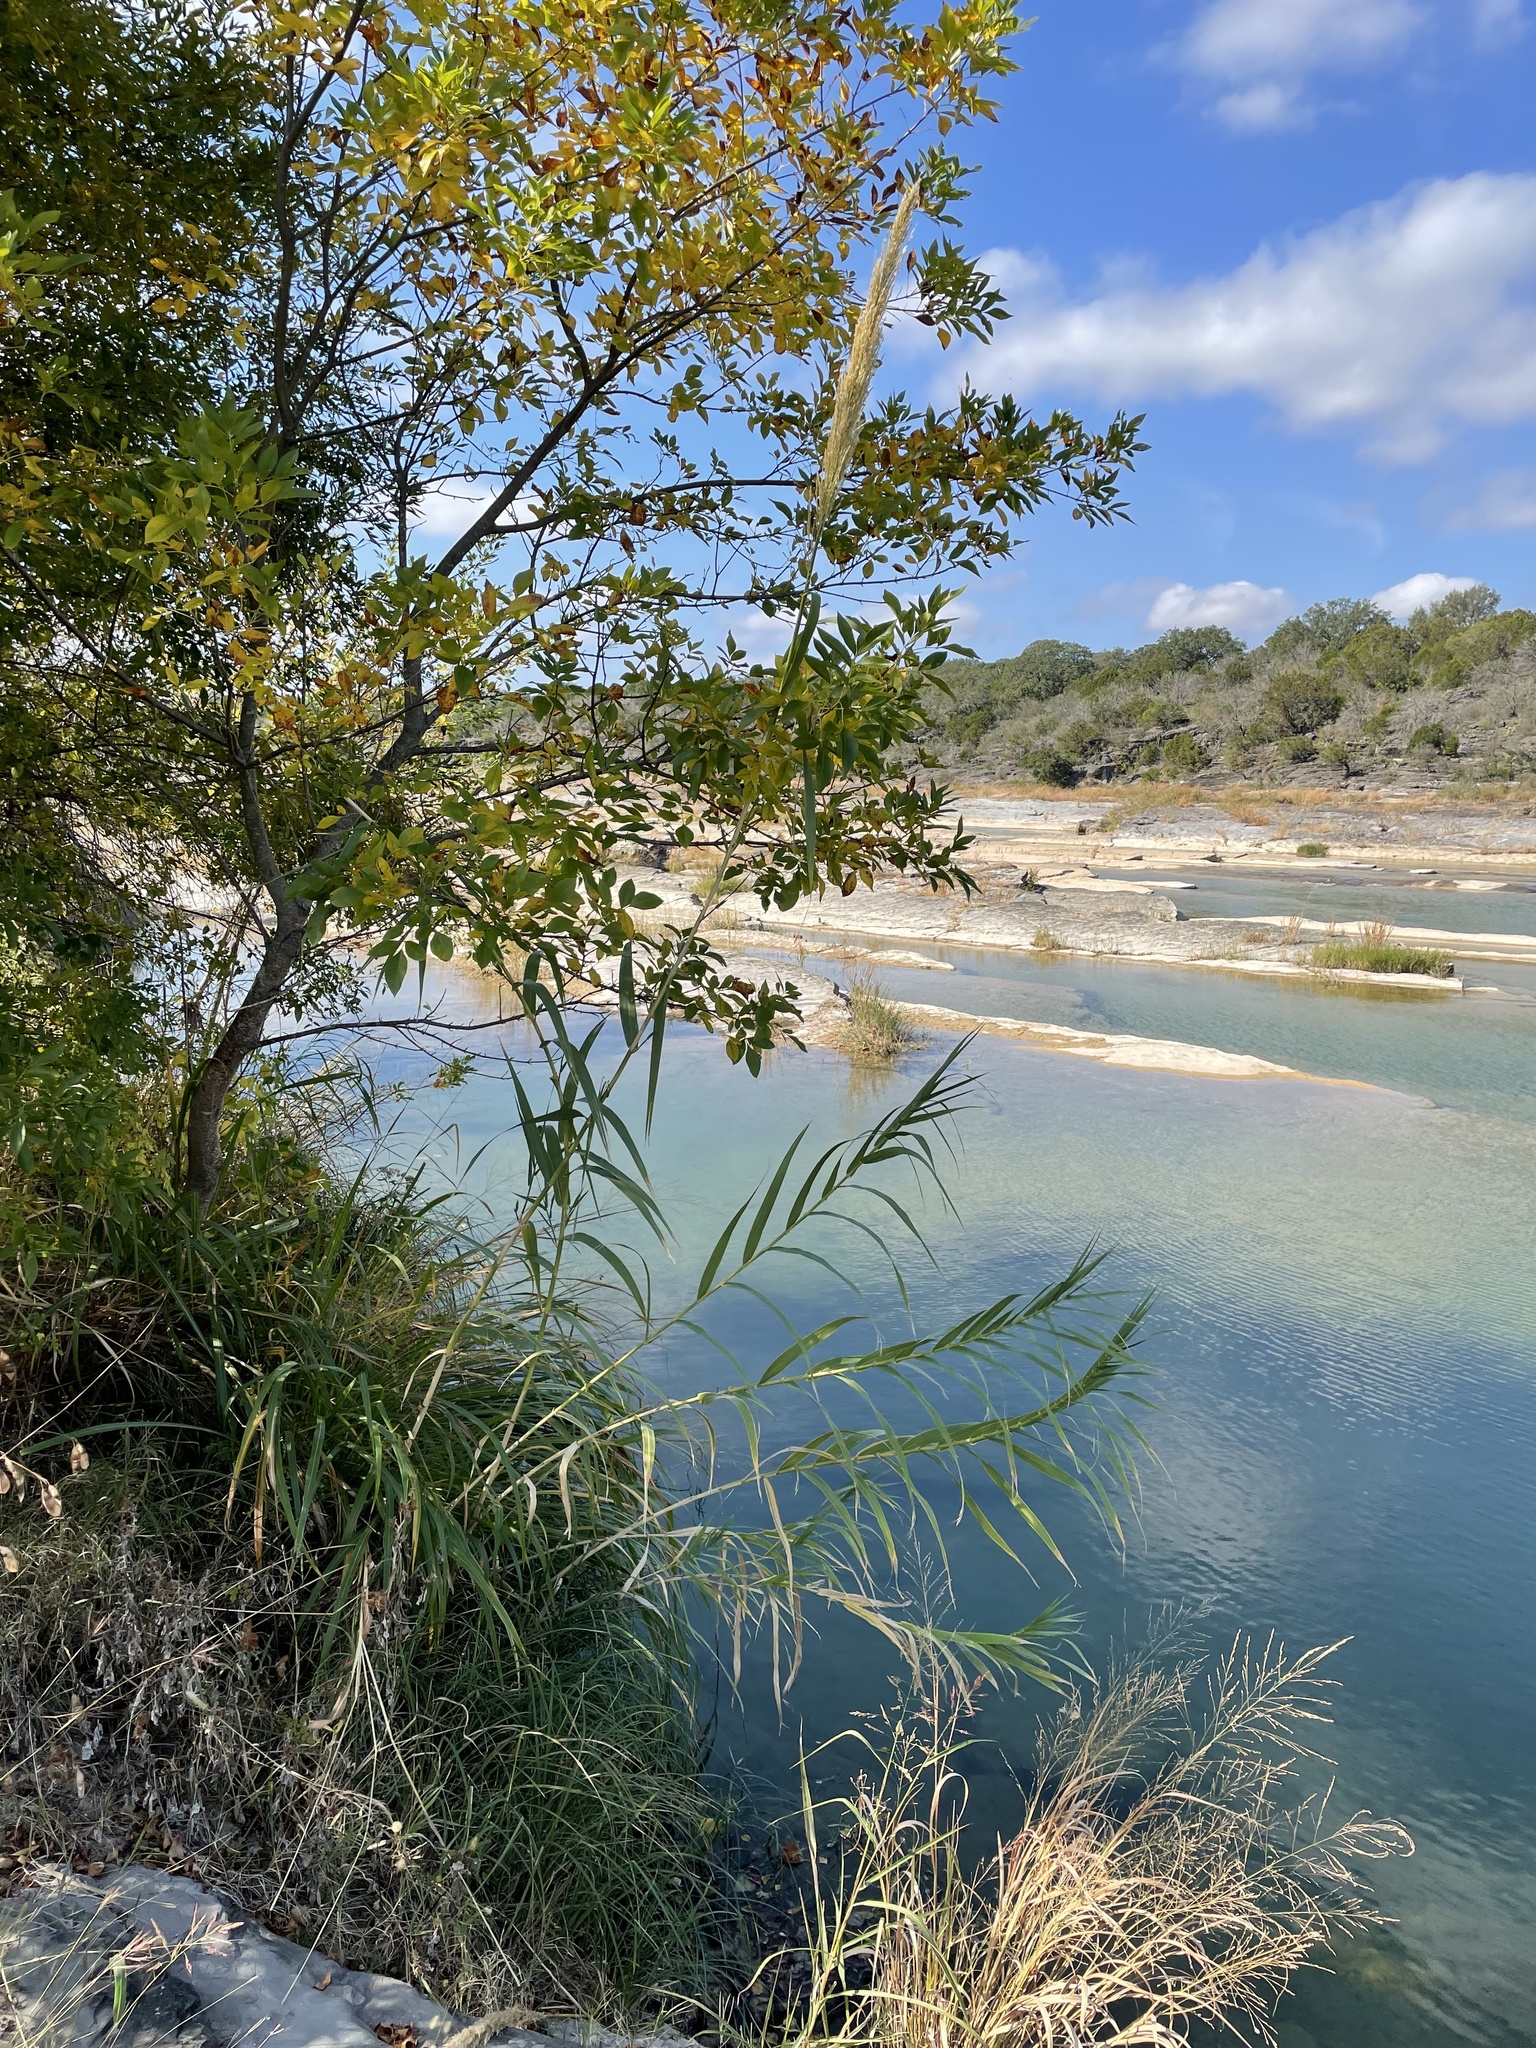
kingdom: Plantae
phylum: Tracheophyta
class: Liliopsida
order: Poales
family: Poaceae
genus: Arundo
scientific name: Arundo donax
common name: Giant reed
